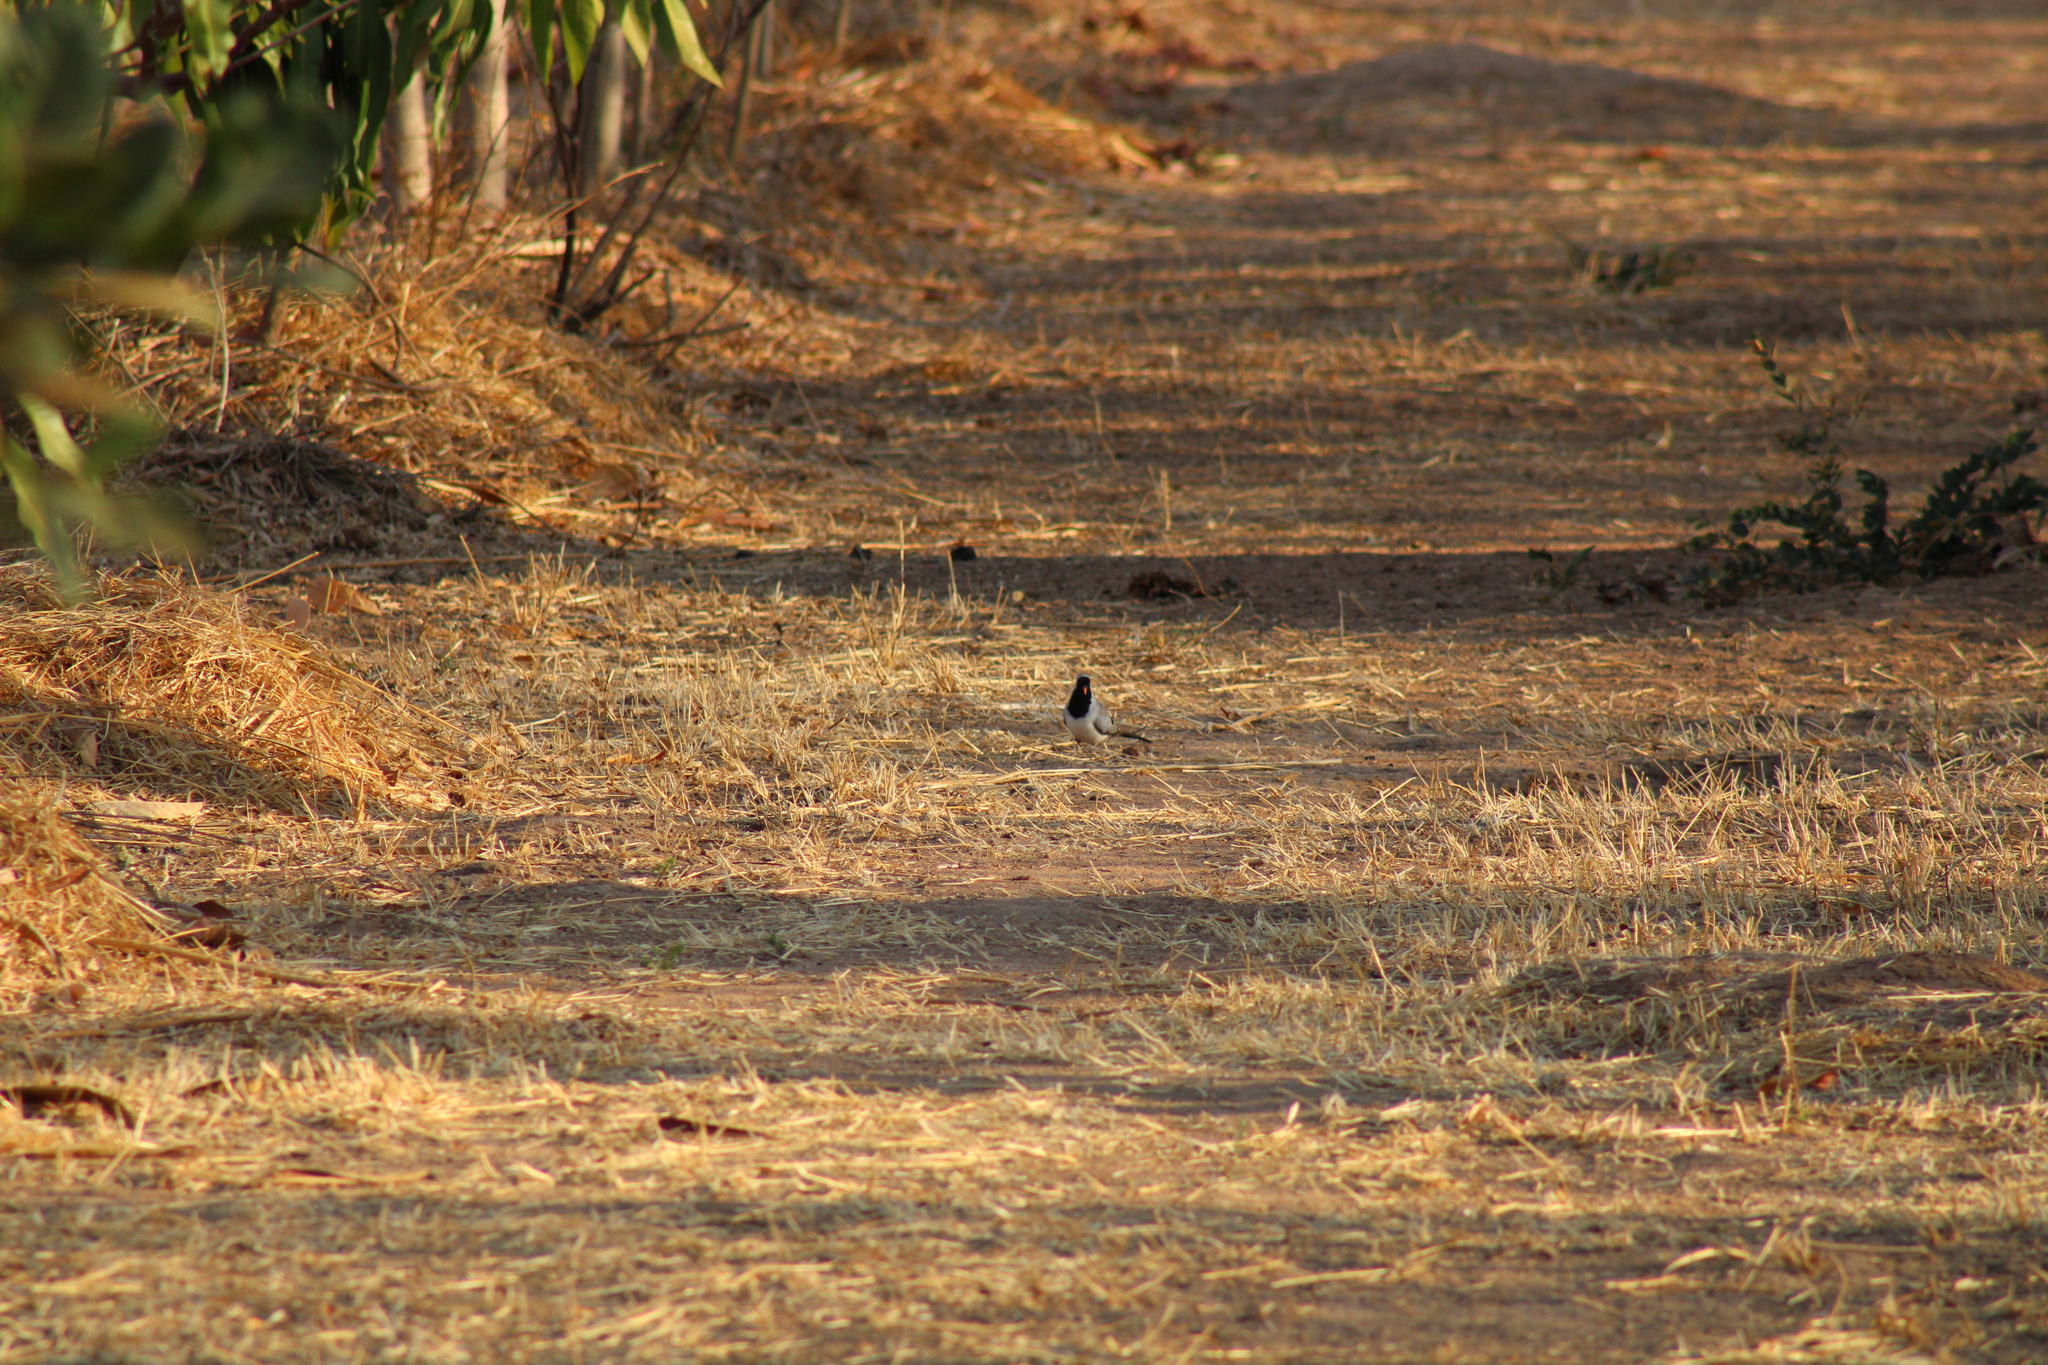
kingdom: Animalia
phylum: Chordata
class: Aves
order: Columbiformes
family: Columbidae
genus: Oena
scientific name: Oena capensis
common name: Namaqua dove
